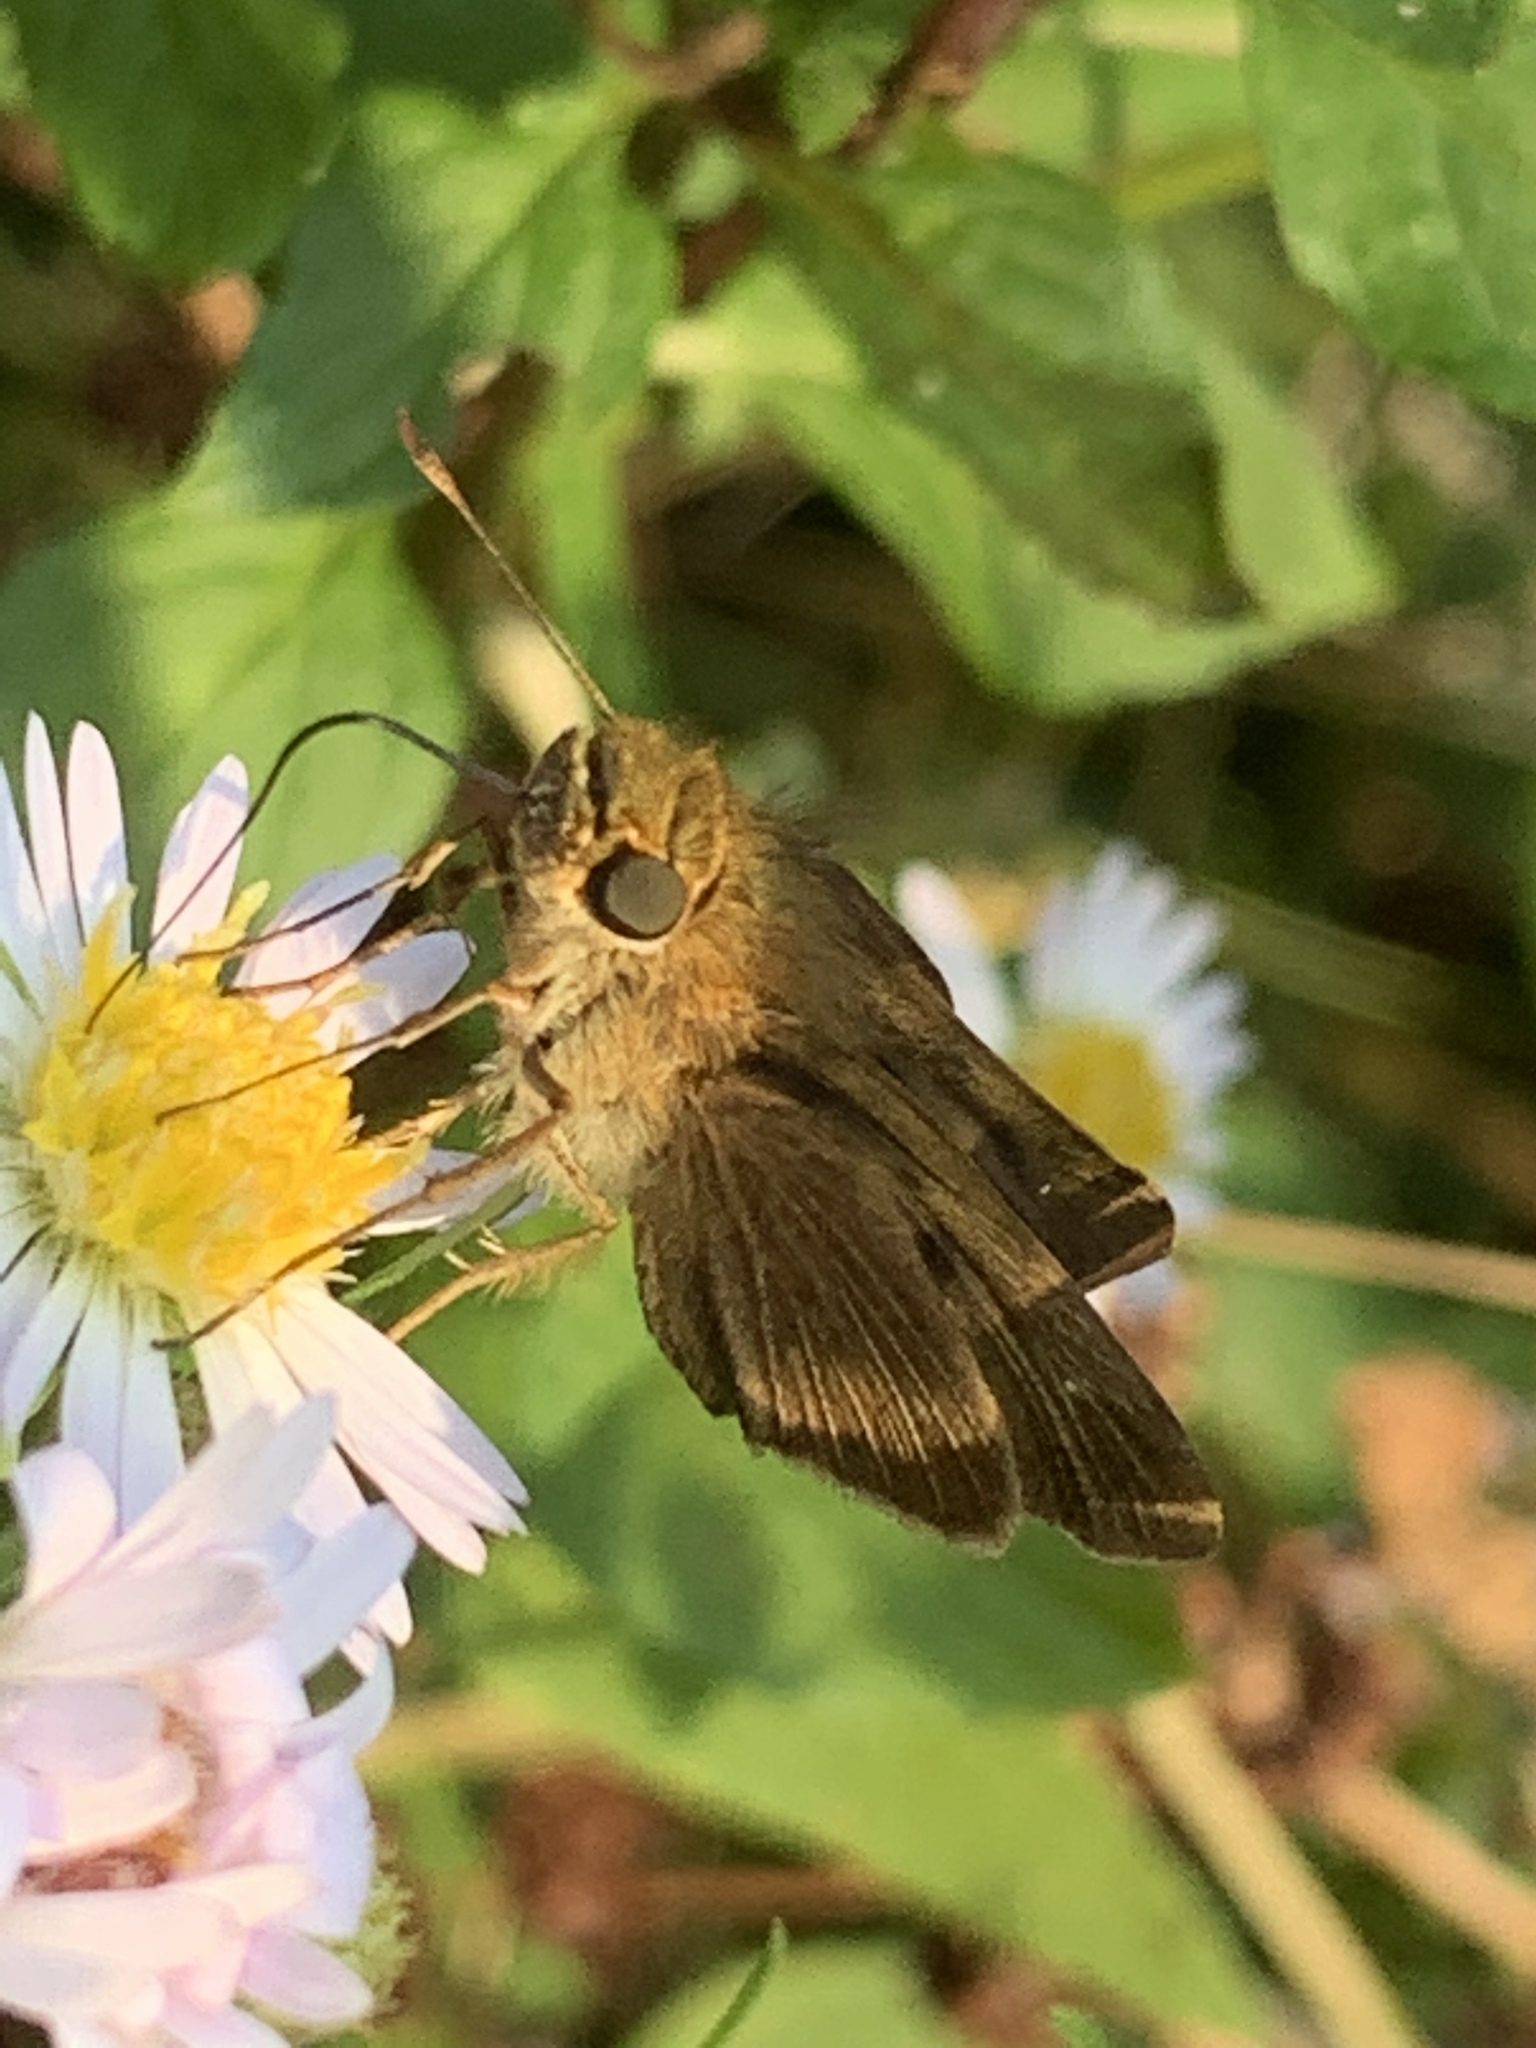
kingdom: Animalia
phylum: Arthropoda
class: Insecta
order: Lepidoptera
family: Hesperiidae
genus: Panoquina
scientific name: Panoquina ocola
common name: Ocola skipper
